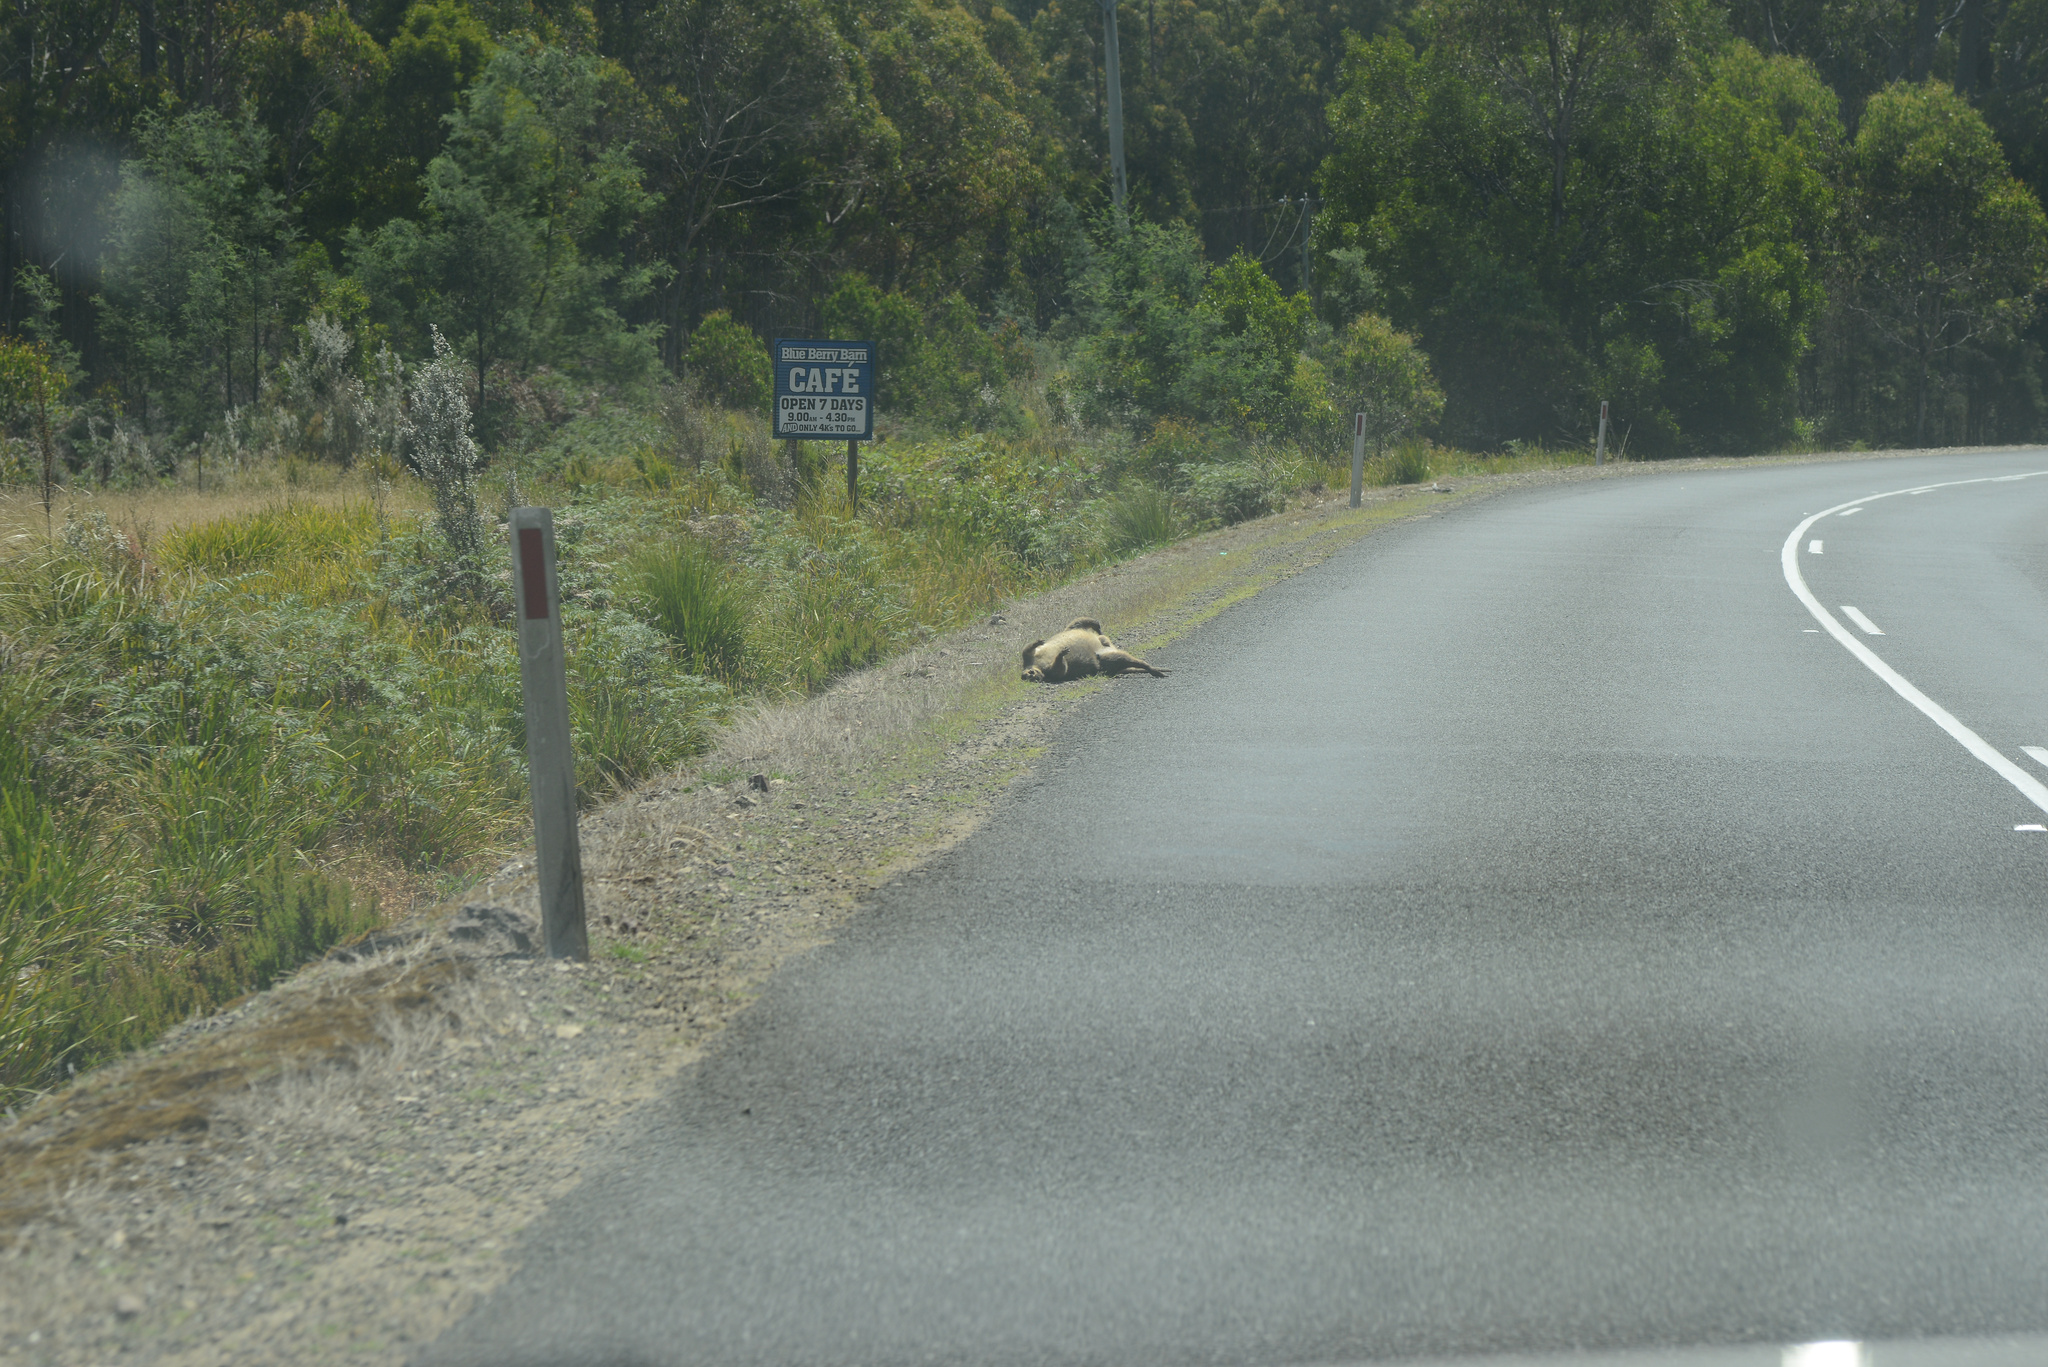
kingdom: Animalia
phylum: Chordata
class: Mammalia
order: Diprotodontia
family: Macropodidae
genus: Notamacropus
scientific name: Notamacropus rufogriseus
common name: Red-necked wallaby
